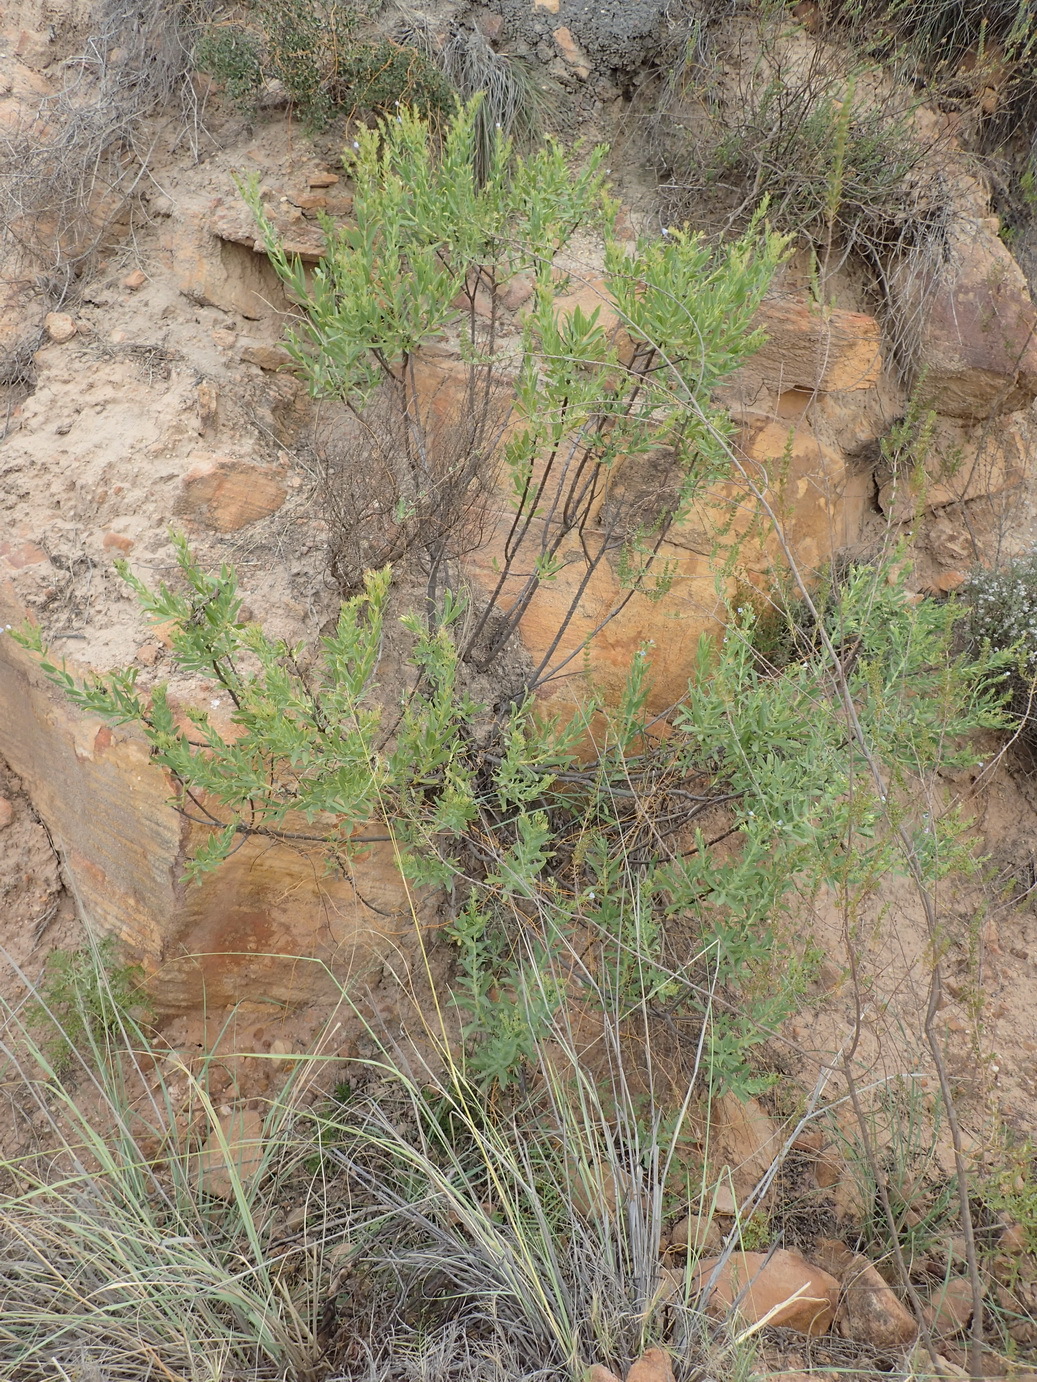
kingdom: Plantae
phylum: Tracheophyta
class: Magnoliopsida
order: Boraginales
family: Boraginaceae
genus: Lobostemon
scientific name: Lobostemon glaucophyllus
